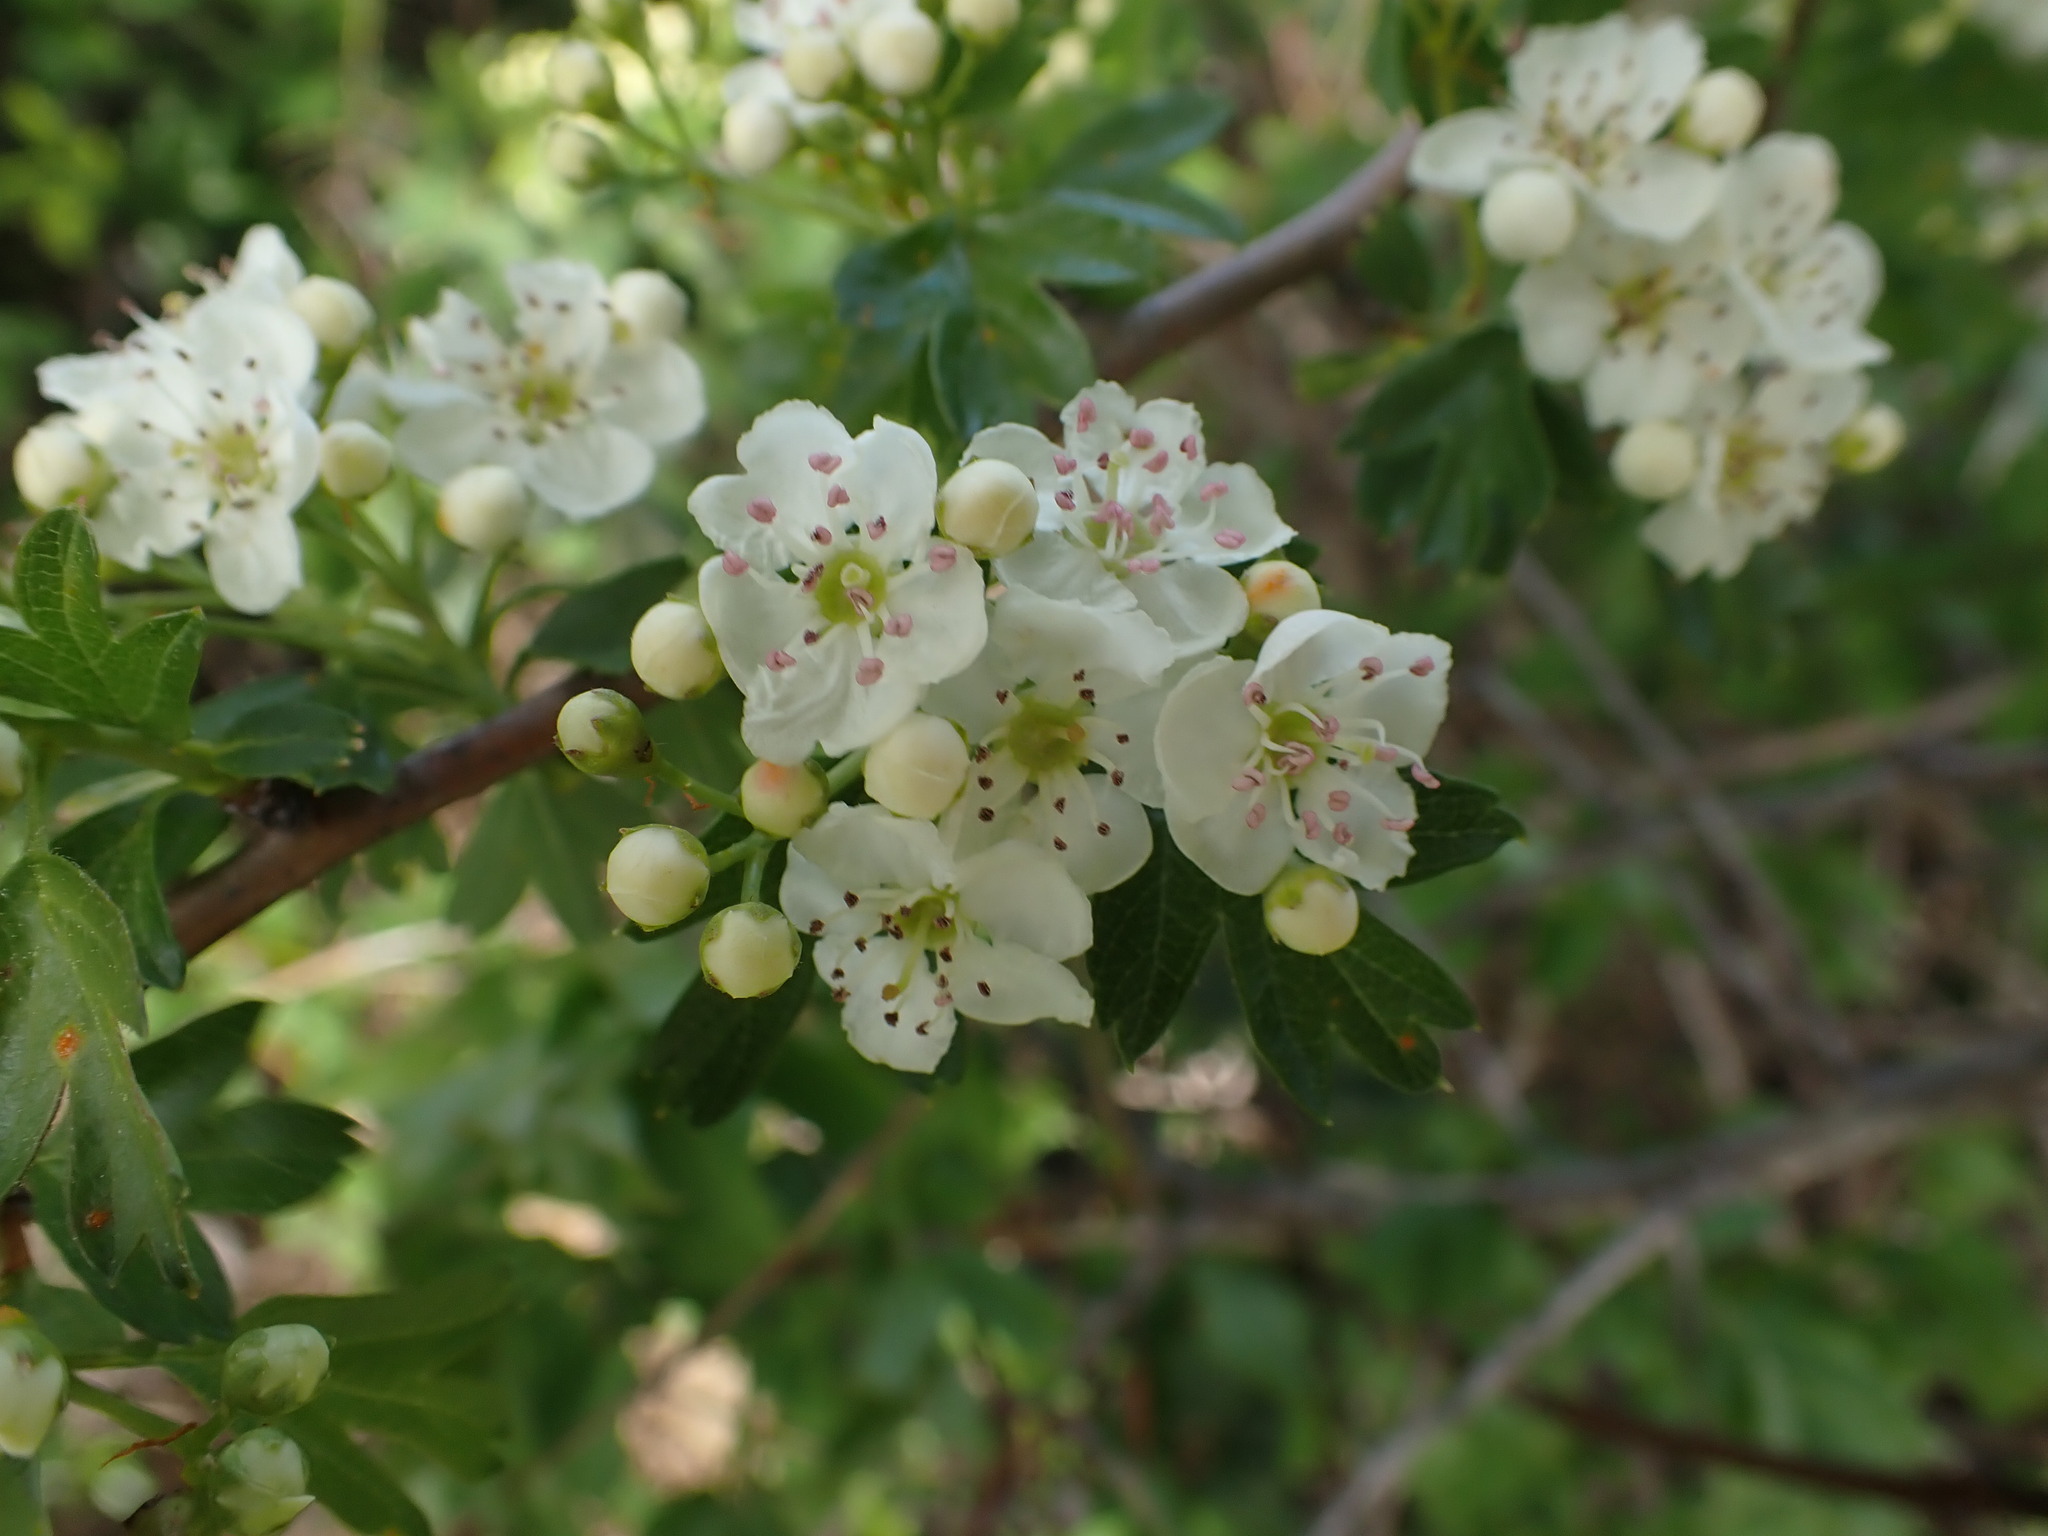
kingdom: Plantae
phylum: Tracheophyta
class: Magnoliopsida
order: Rosales
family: Rosaceae
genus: Crataegus
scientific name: Crataegus monogyna
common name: Hawthorn
